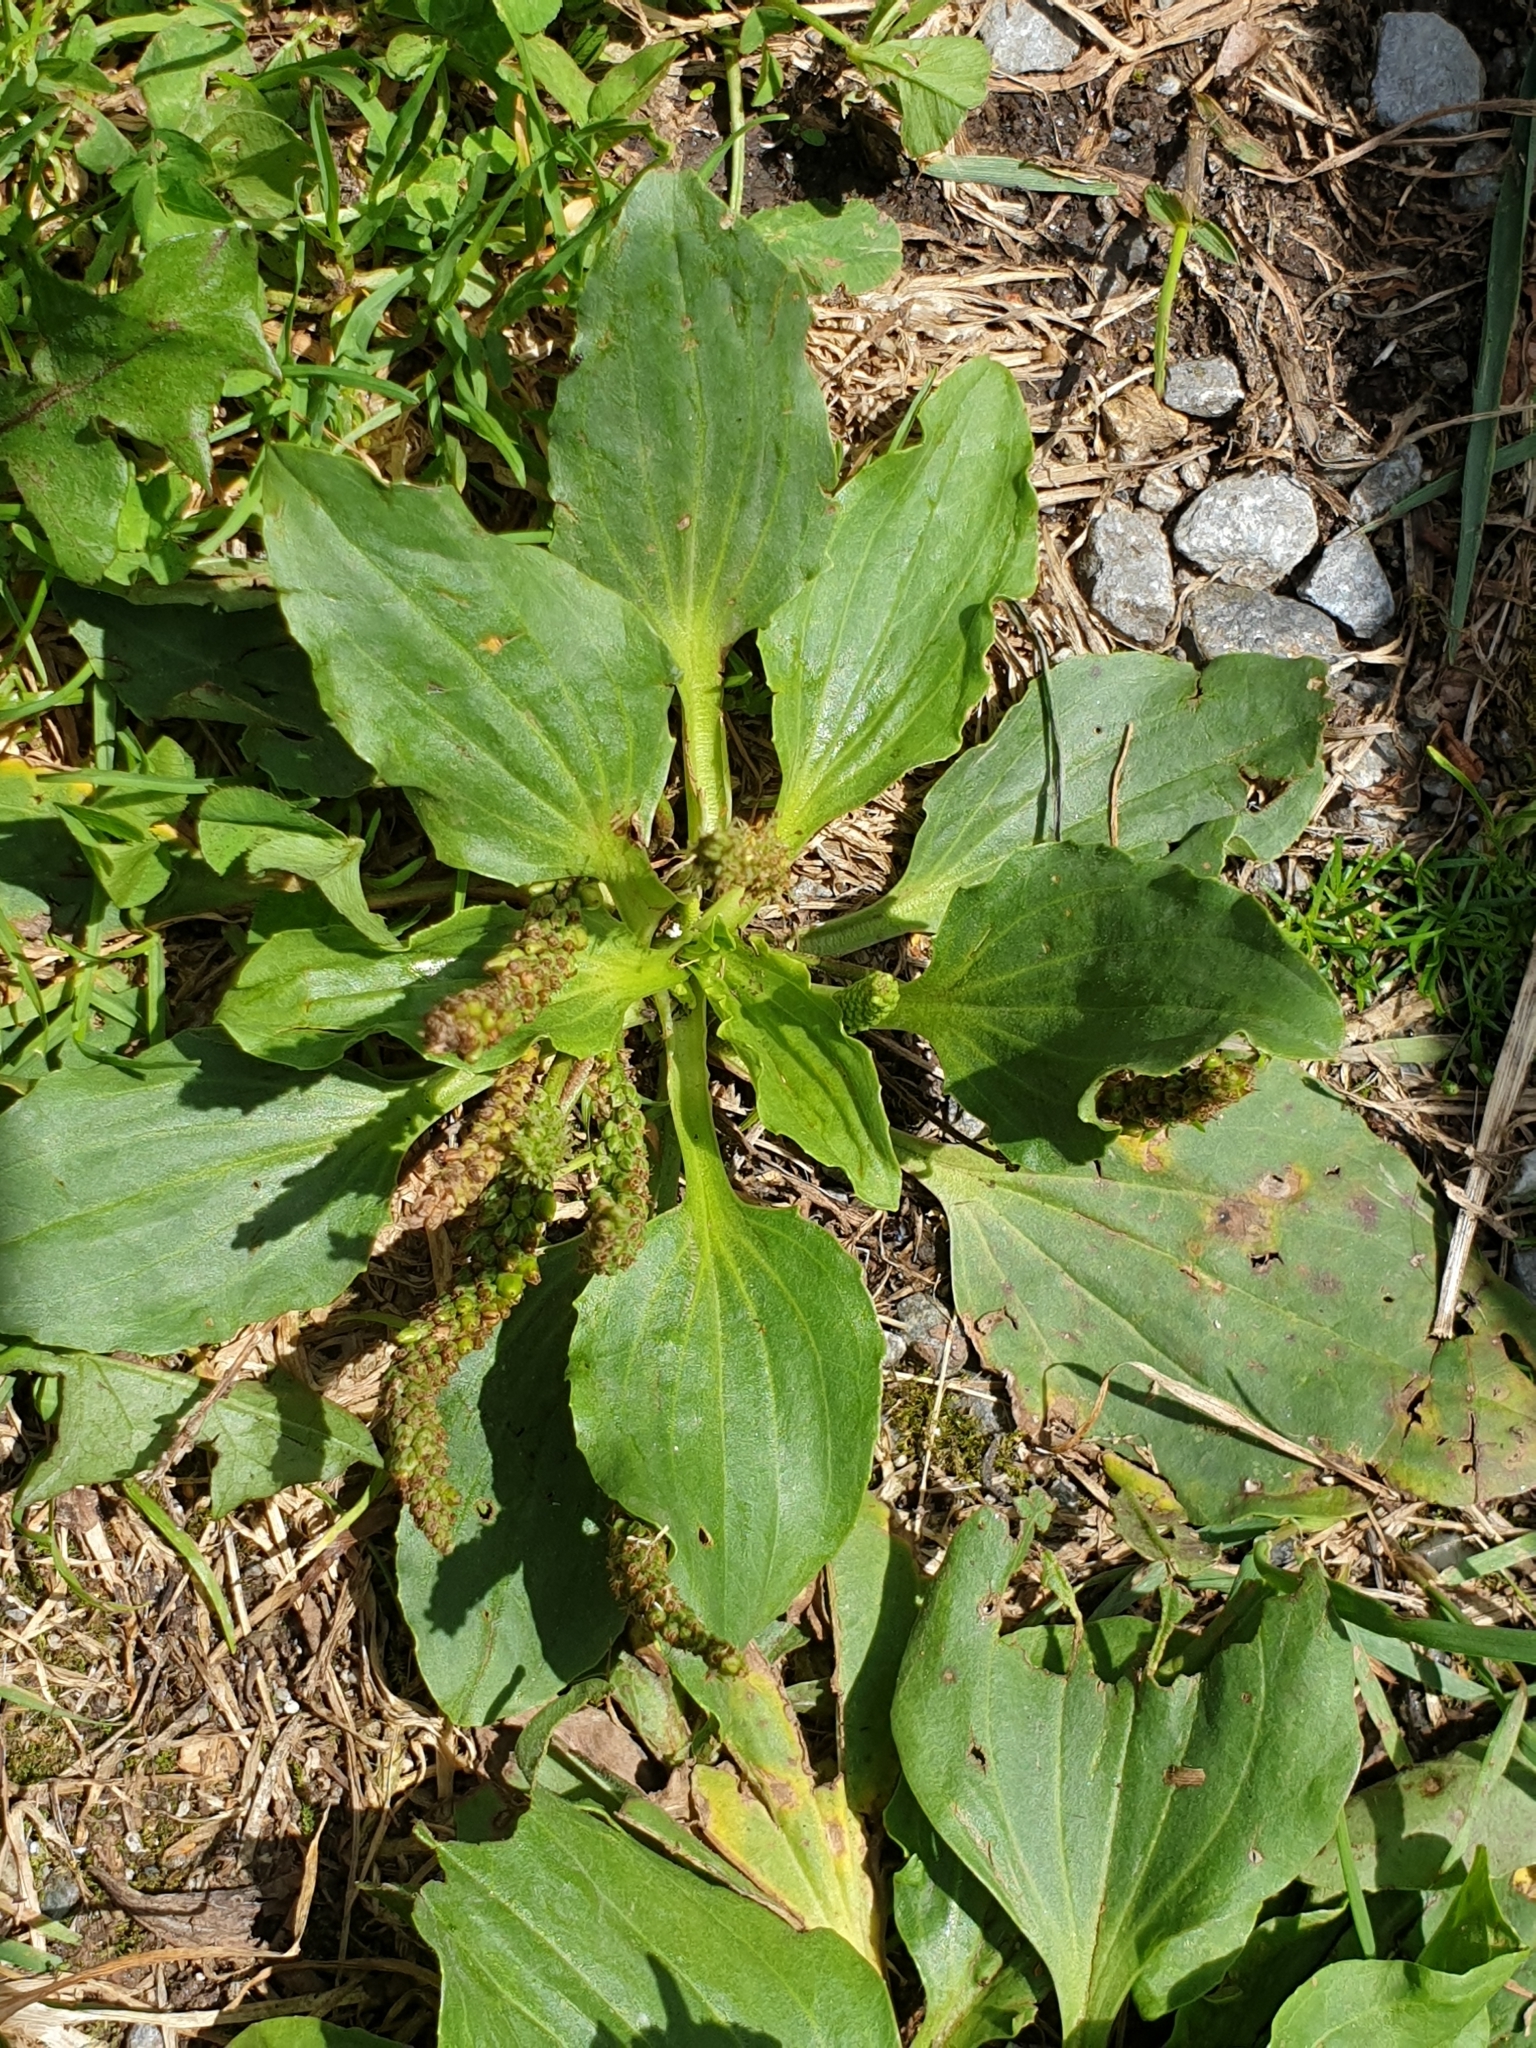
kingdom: Plantae
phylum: Tracheophyta
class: Magnoliopsida
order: Lamiales
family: Plantaginaceae
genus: Plantago
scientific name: Plantago major
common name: Common plantain
